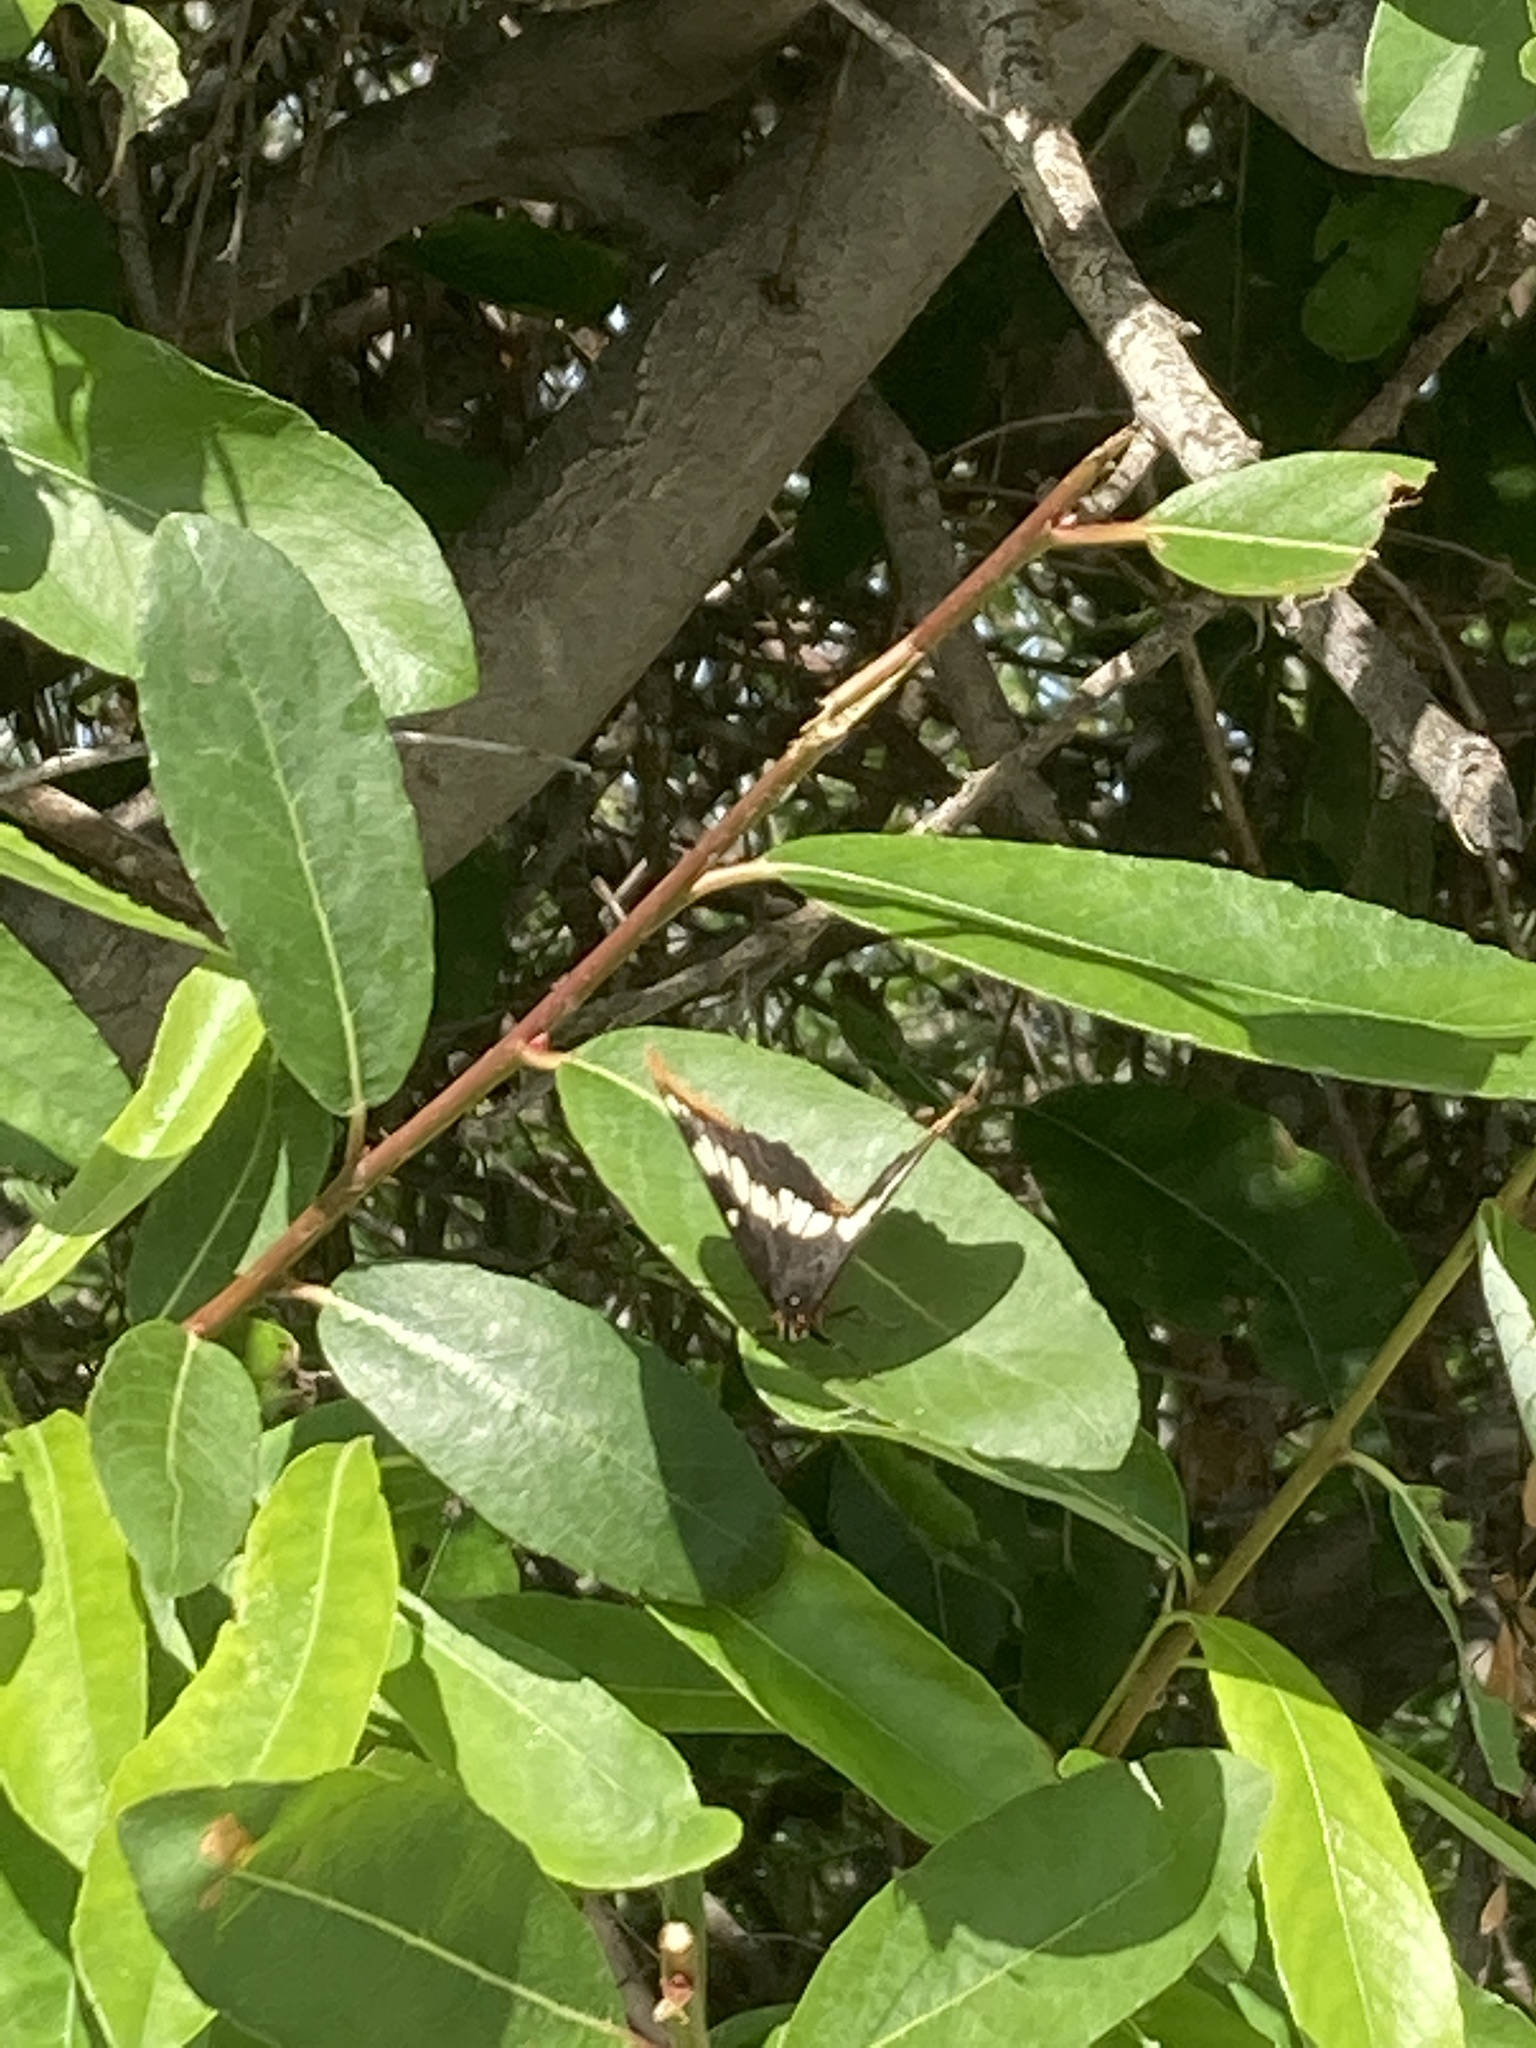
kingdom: Animalia
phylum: Arthropoda
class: Insecta
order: Lepidoptera
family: Nymphalidae
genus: Limenitis
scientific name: Limenitis lorquini
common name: Lorquin's admiral
